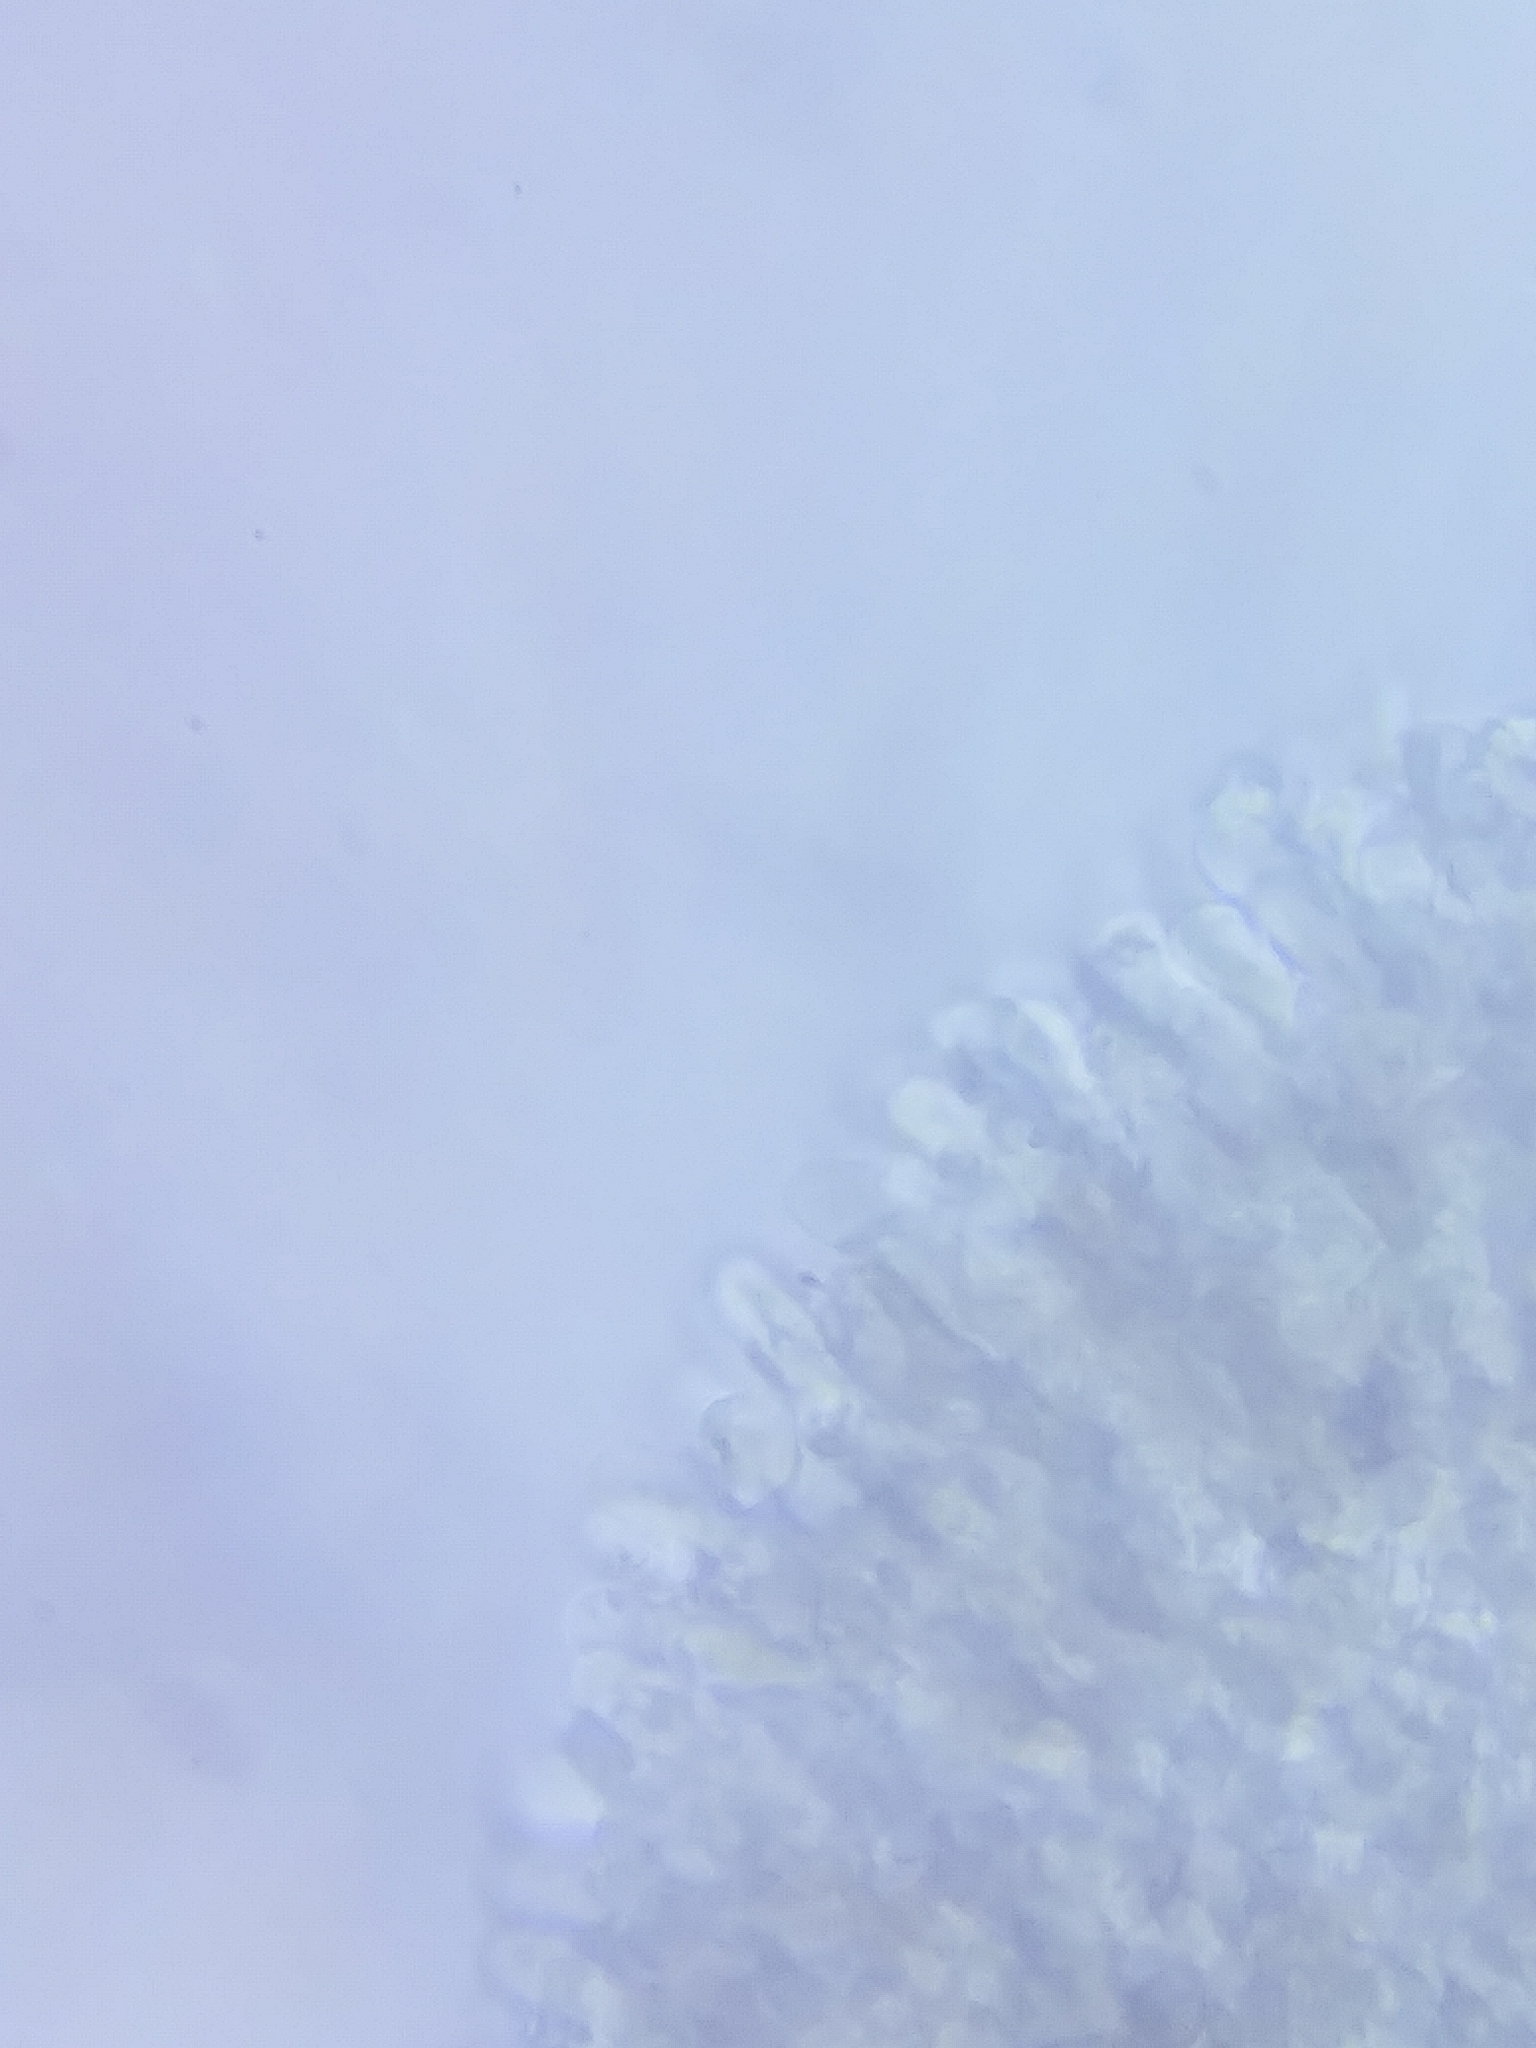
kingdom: Fungi
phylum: Basidiomycota
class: Agaricomycetes
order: Agaricales
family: Hygrophoraceae
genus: Arrhenia
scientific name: Arrhenia gerardiana
